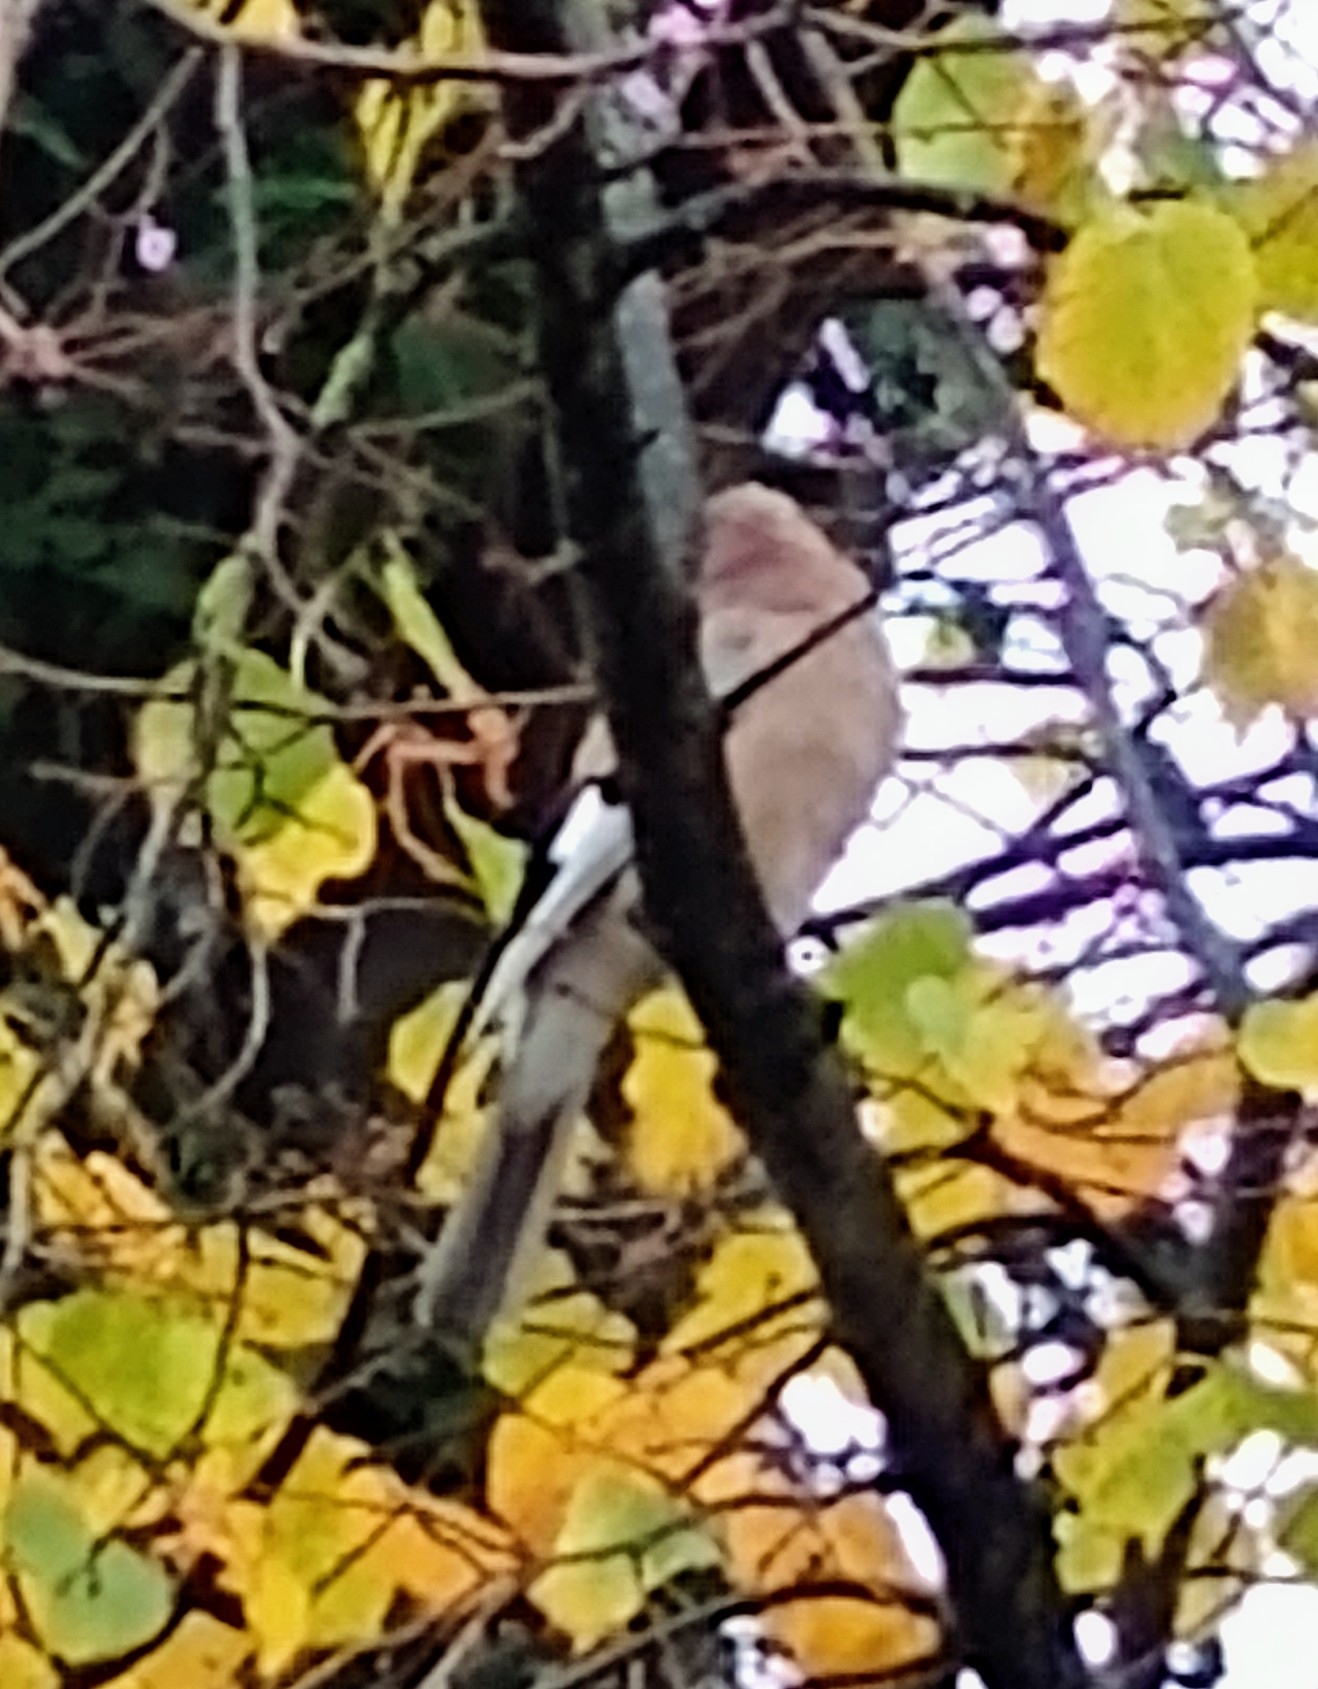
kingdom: Animalia
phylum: Chordata
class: Aves
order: Passeriformes
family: Corvidae
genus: Garrulus
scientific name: Garrulus glandarius
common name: Eurasian jay
